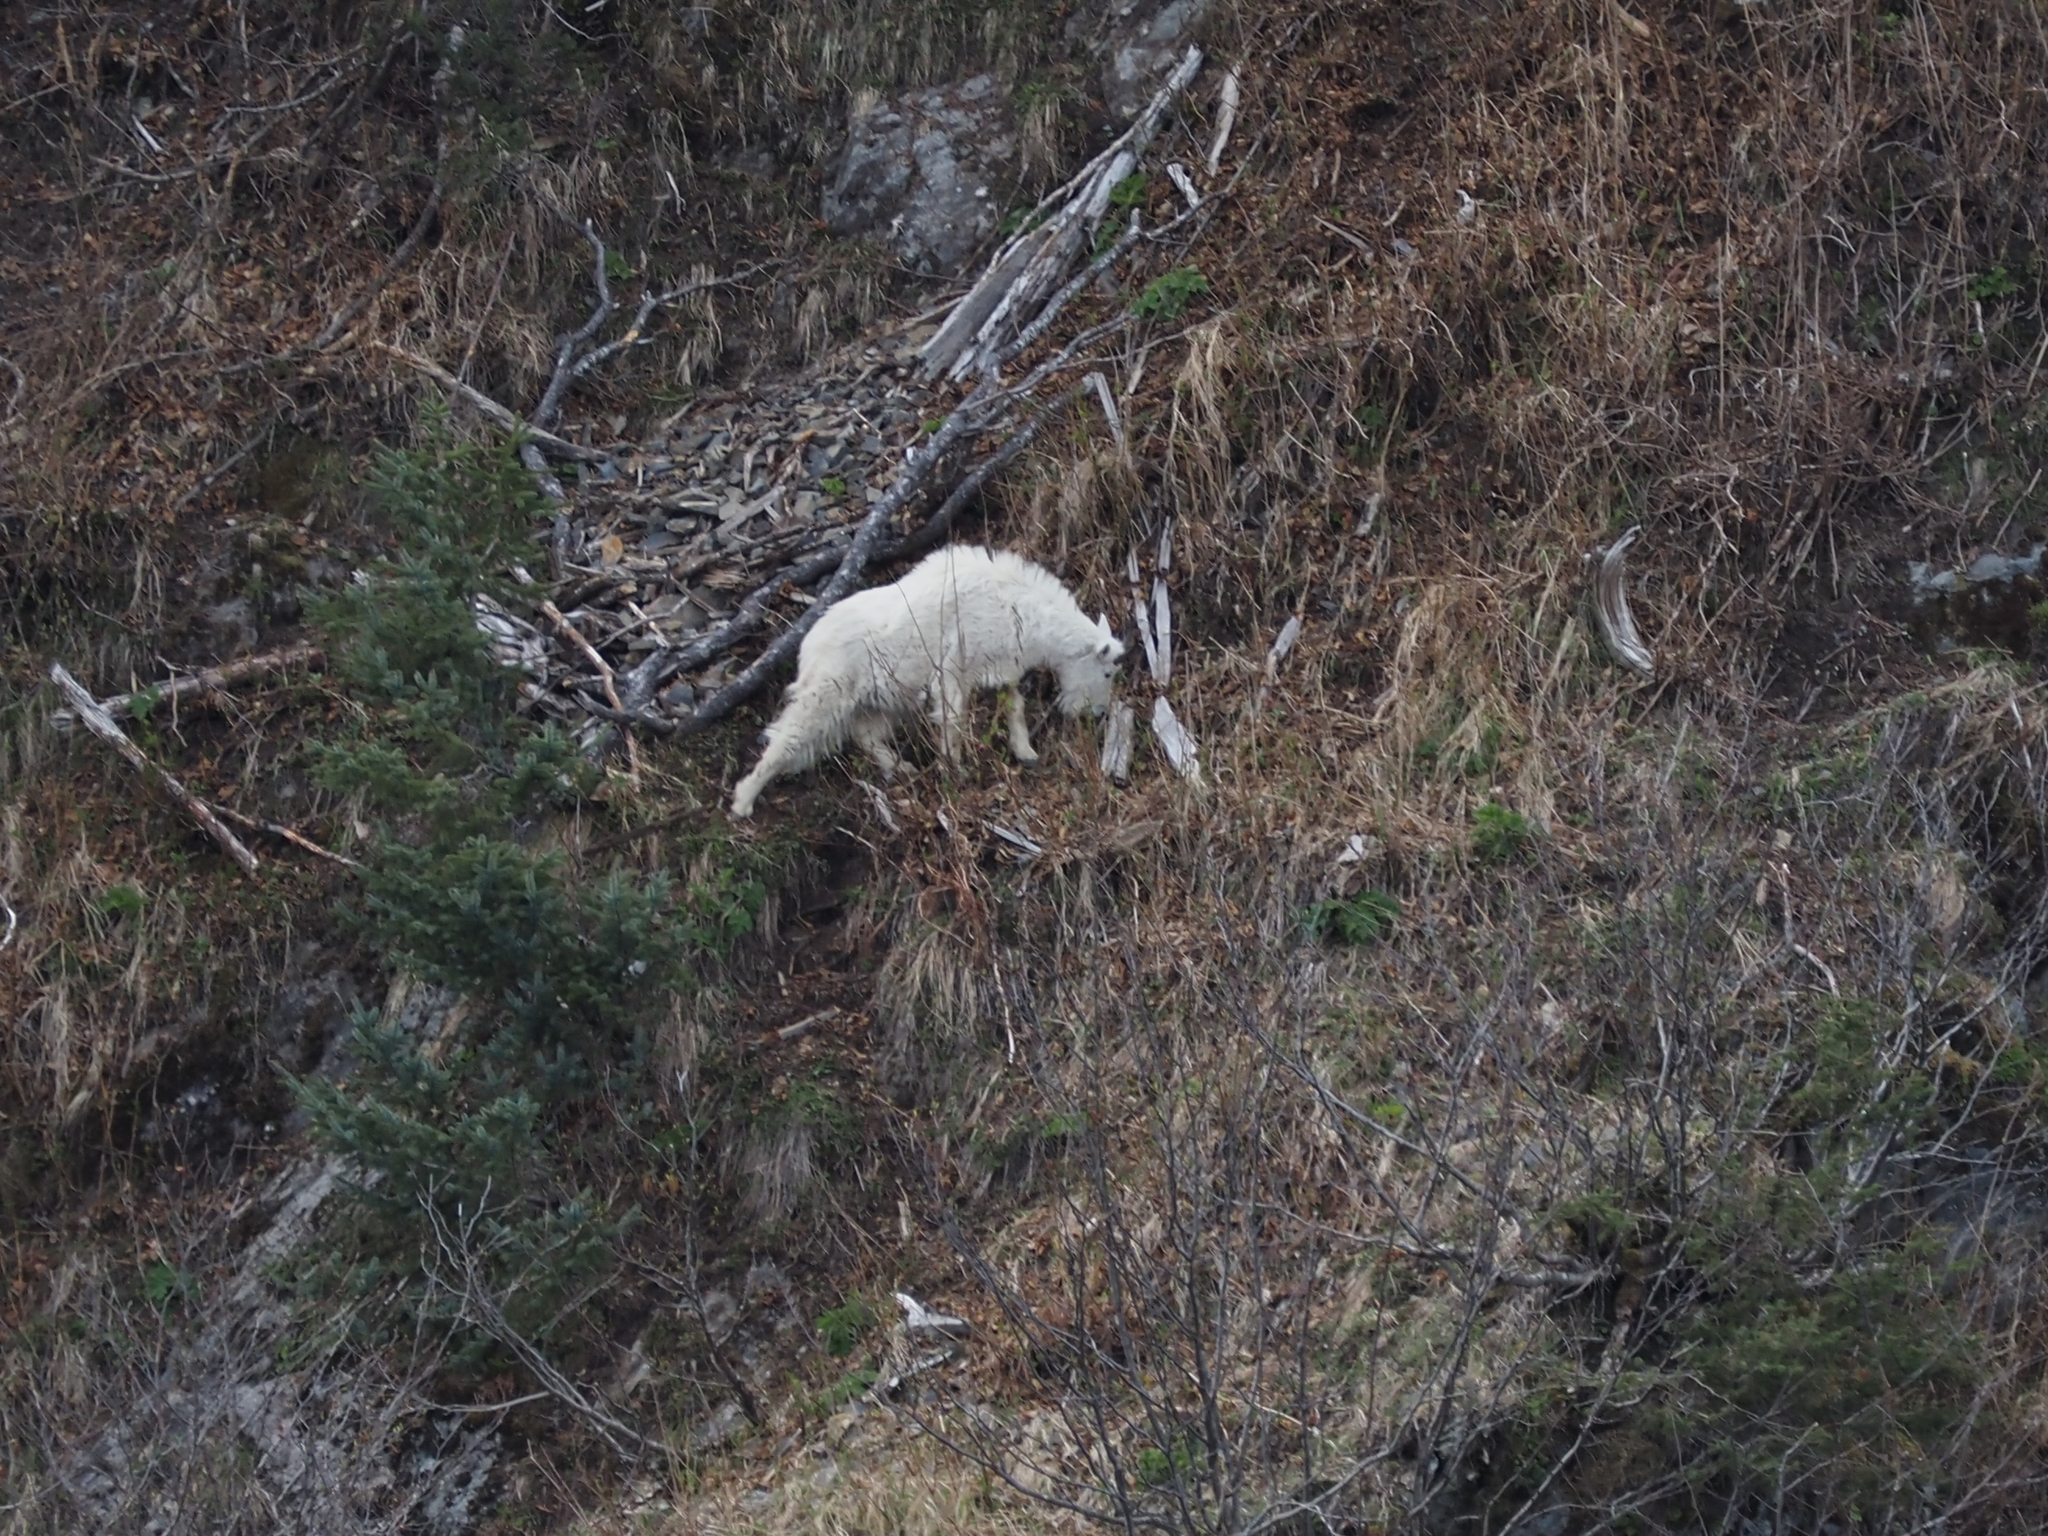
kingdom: Animalia
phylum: Chordata
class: Mammalia
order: Artiodactyla
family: Bovidae
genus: Oreamnos
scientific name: Oreamnos americanus
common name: Mountain goat
